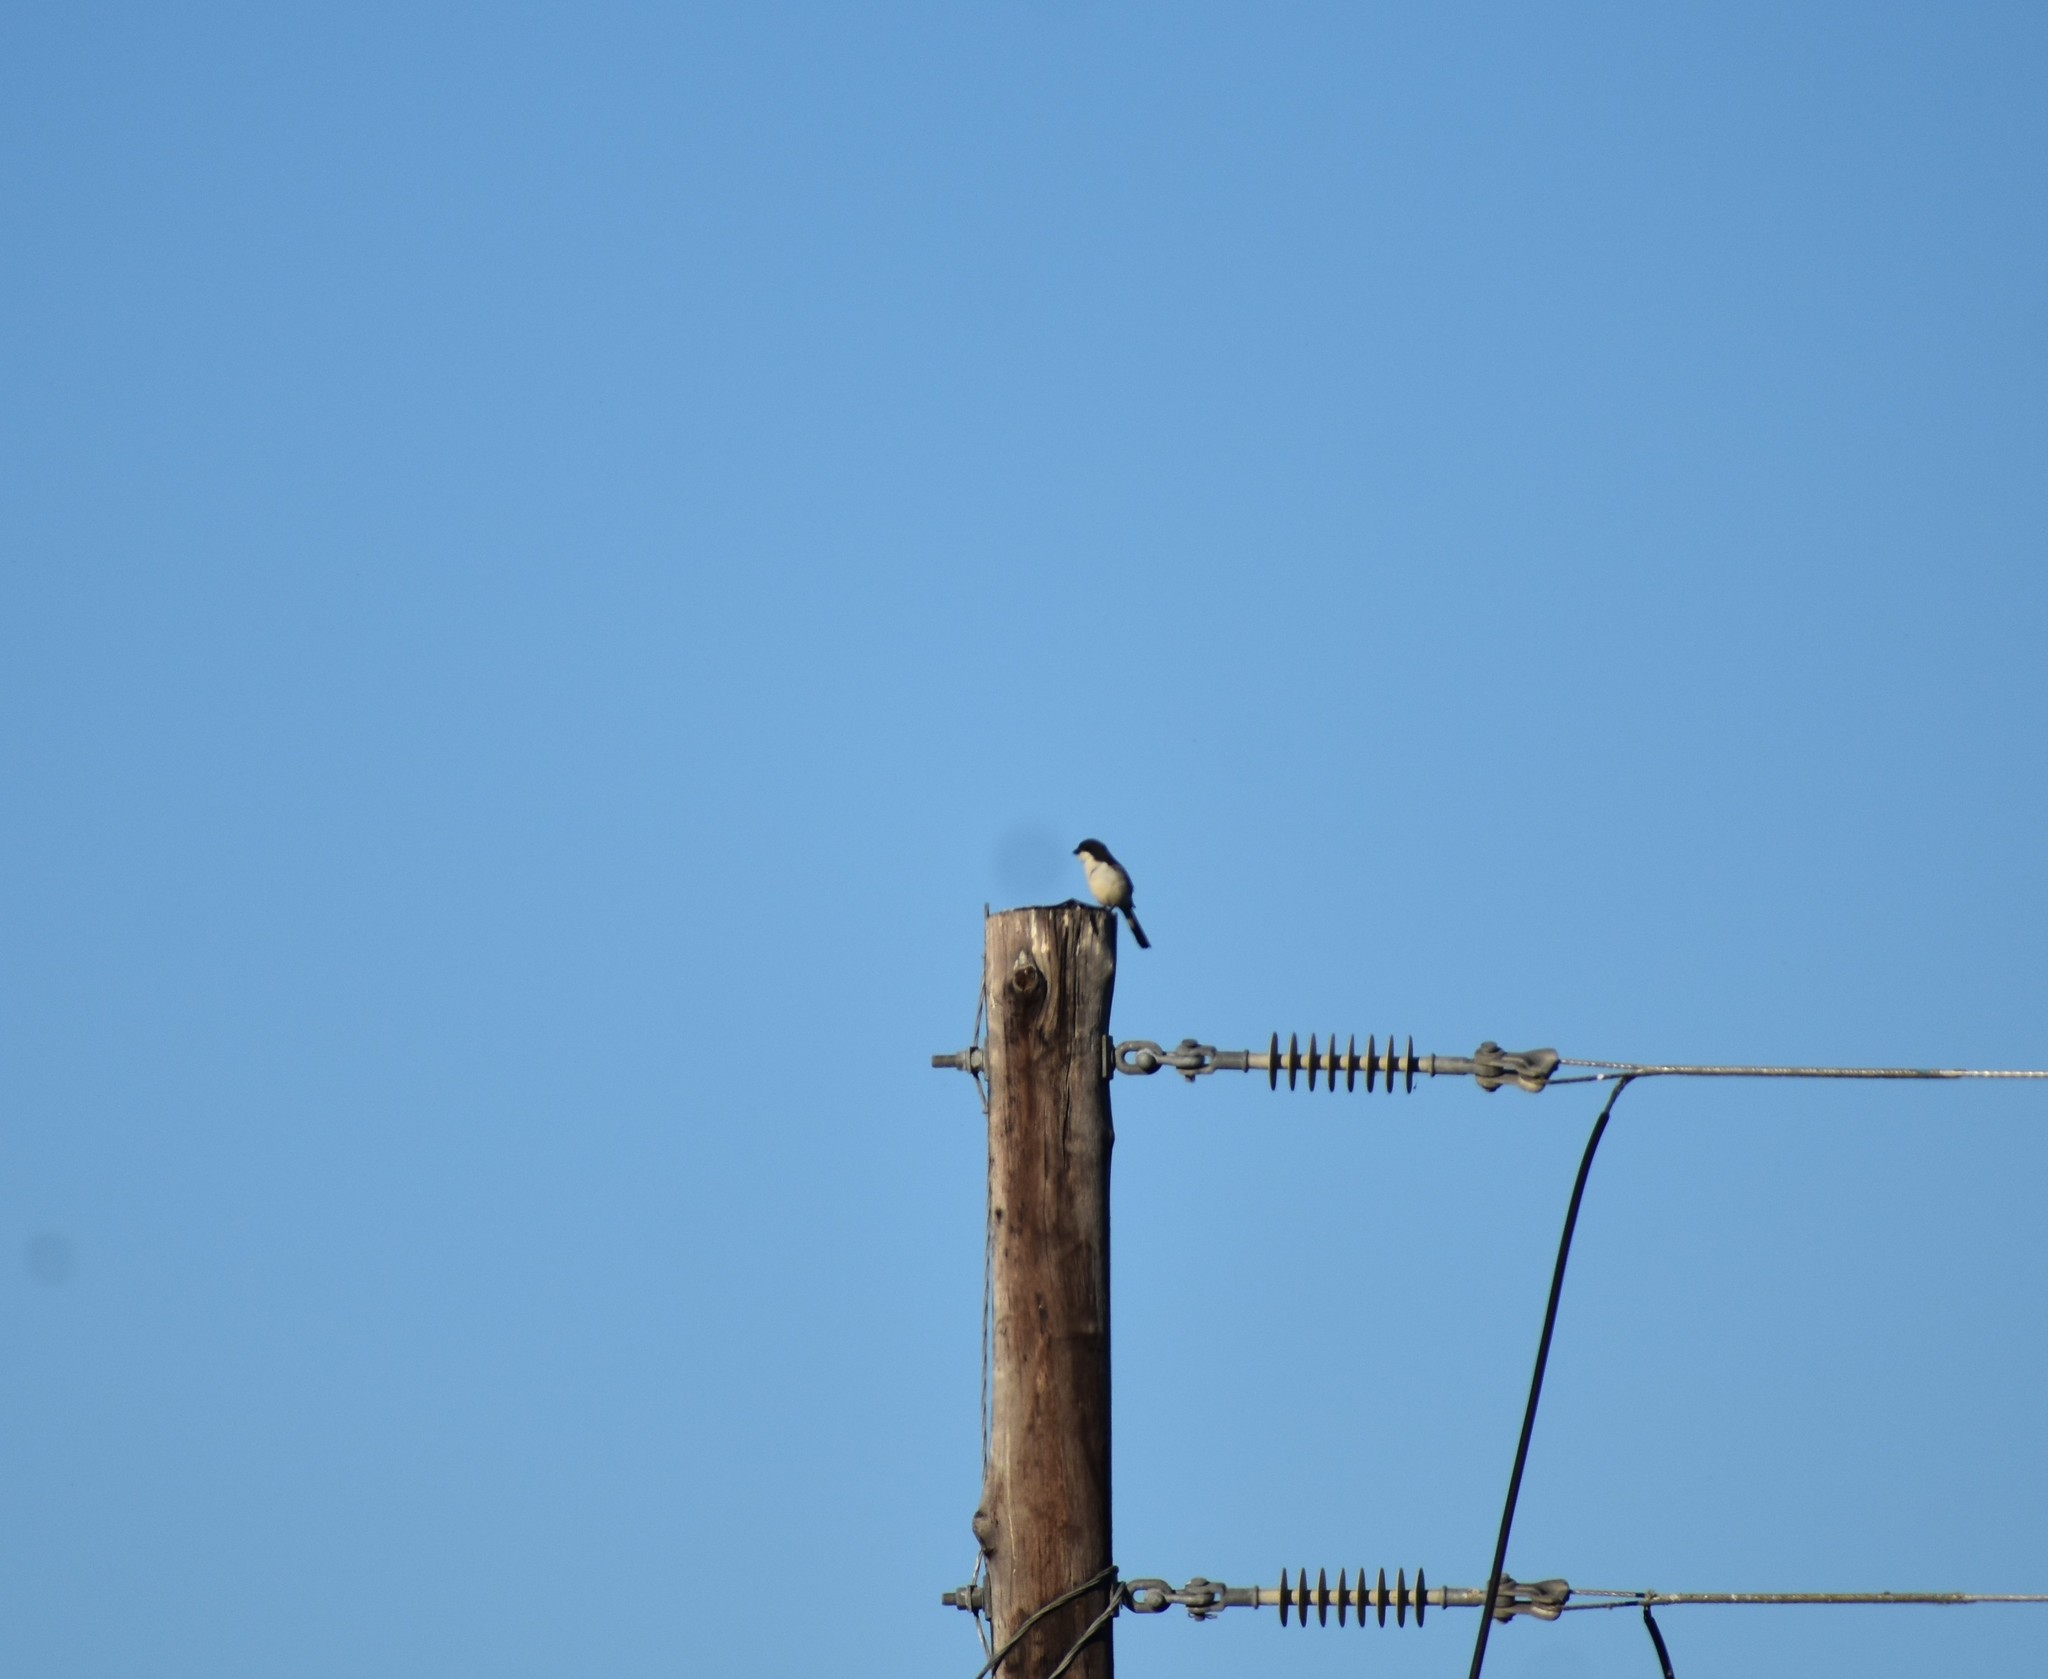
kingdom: Animalia
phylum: Chordata
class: Aves
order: Passeriformes
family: Laniidae
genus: Lanius
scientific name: Lanius collaris
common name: Southern fiscal
